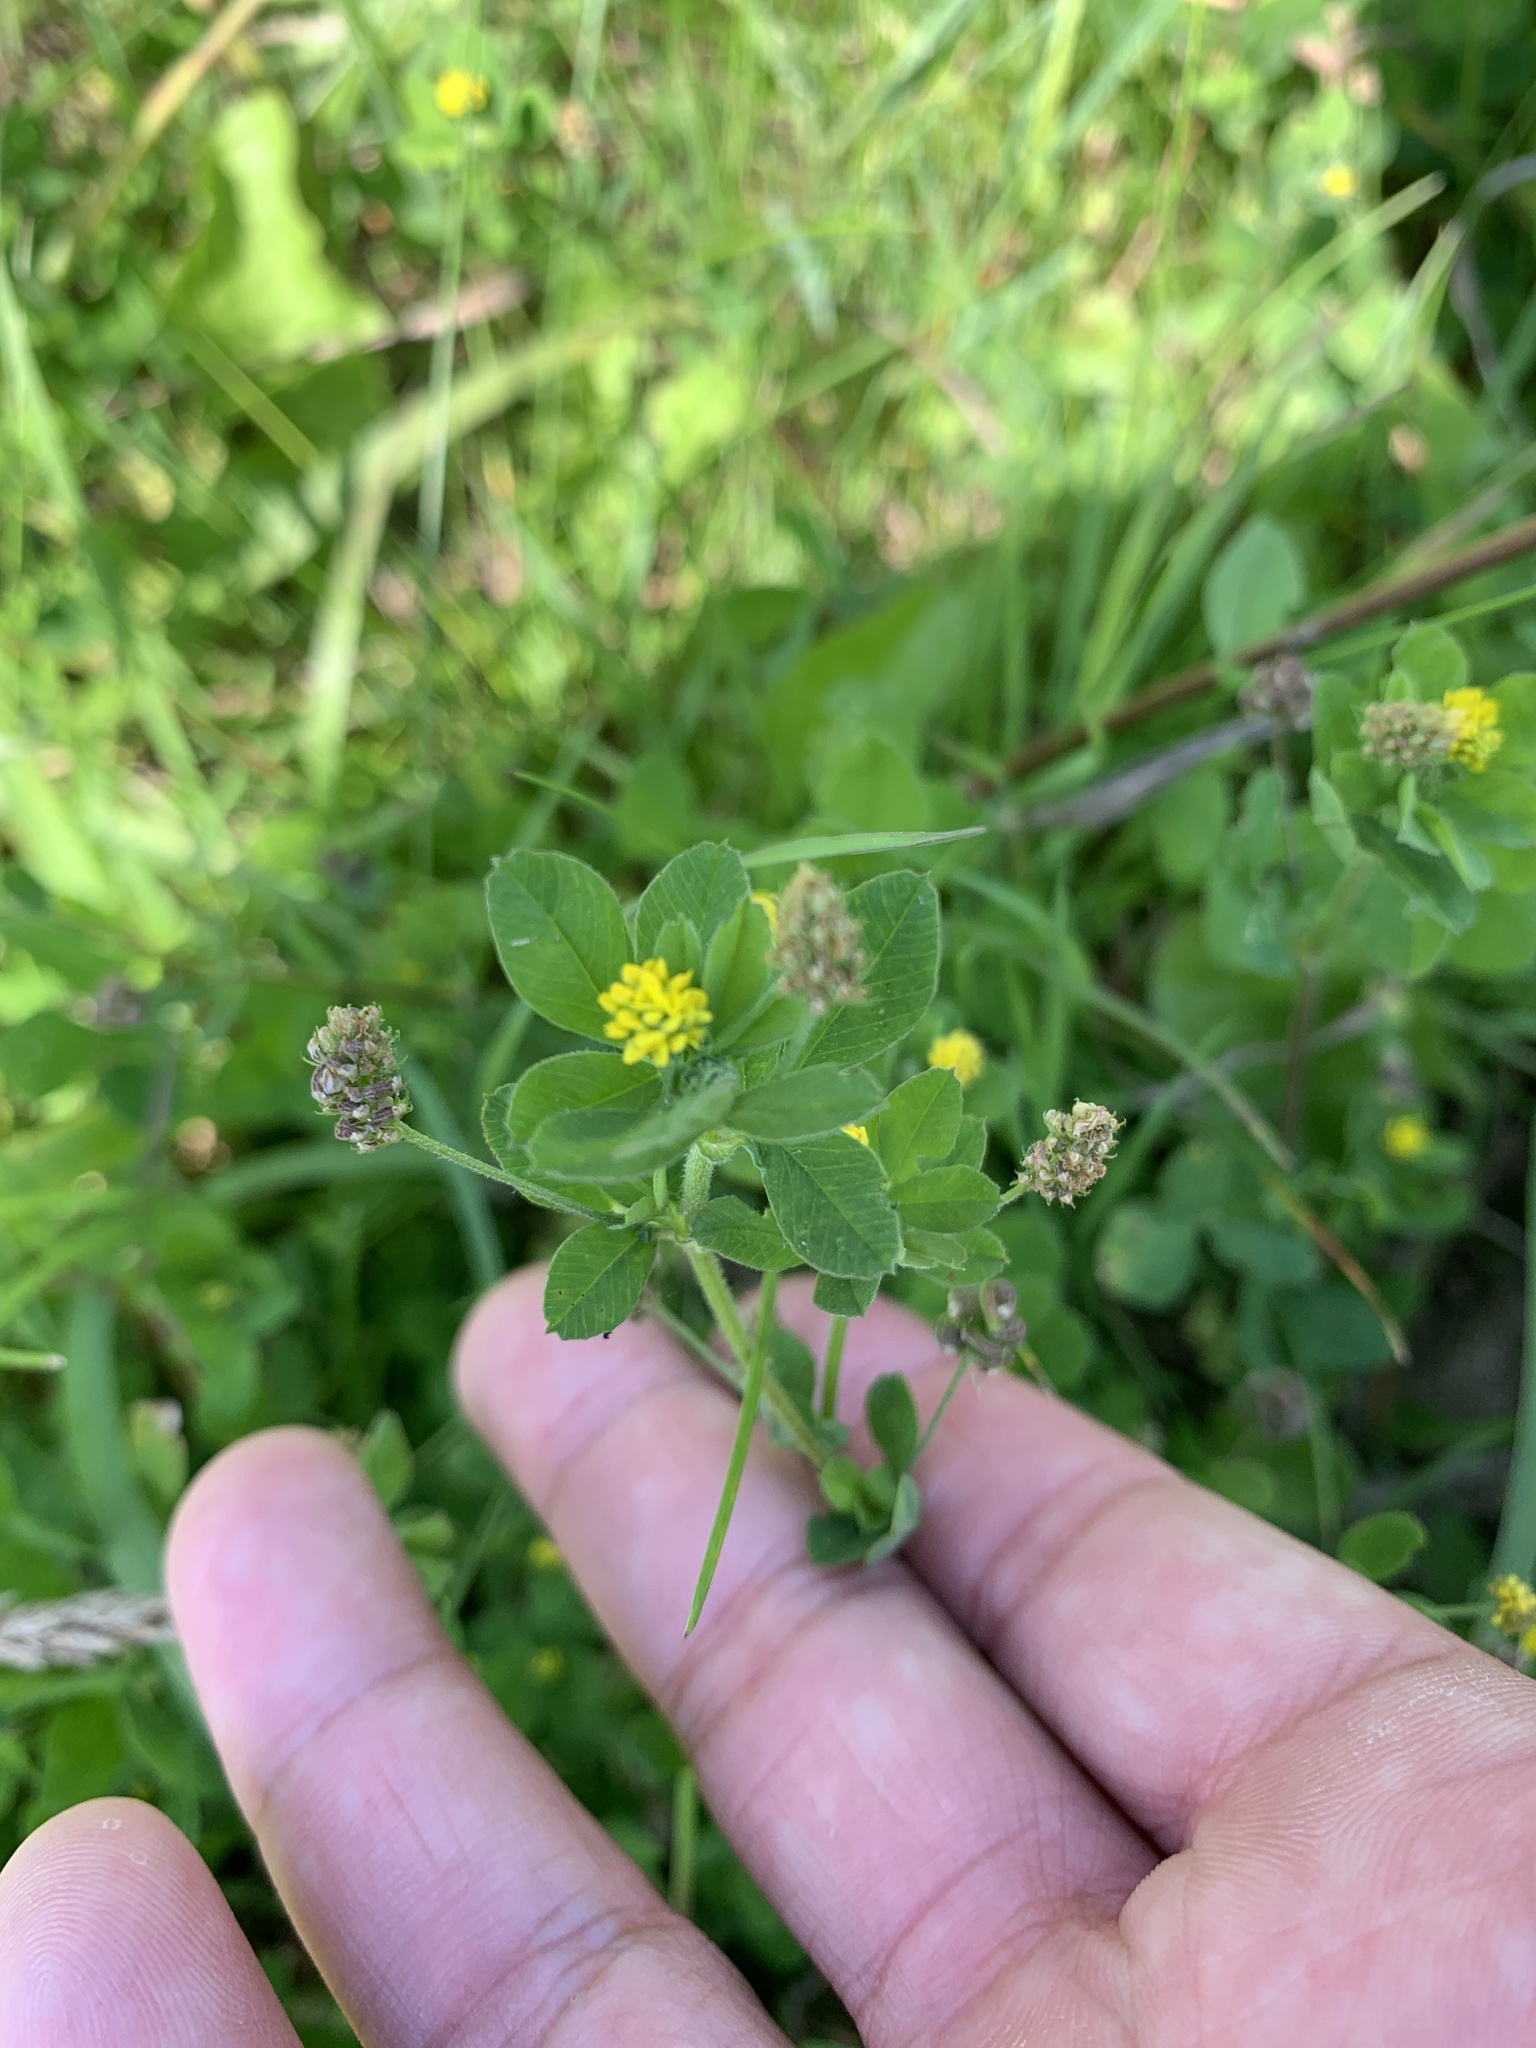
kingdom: Plantae
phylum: Tracheophyta
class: Magnoliopsida
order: Fabales
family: Fabaceae
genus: Medicago
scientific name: Medicago lupulina
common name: Black medick
